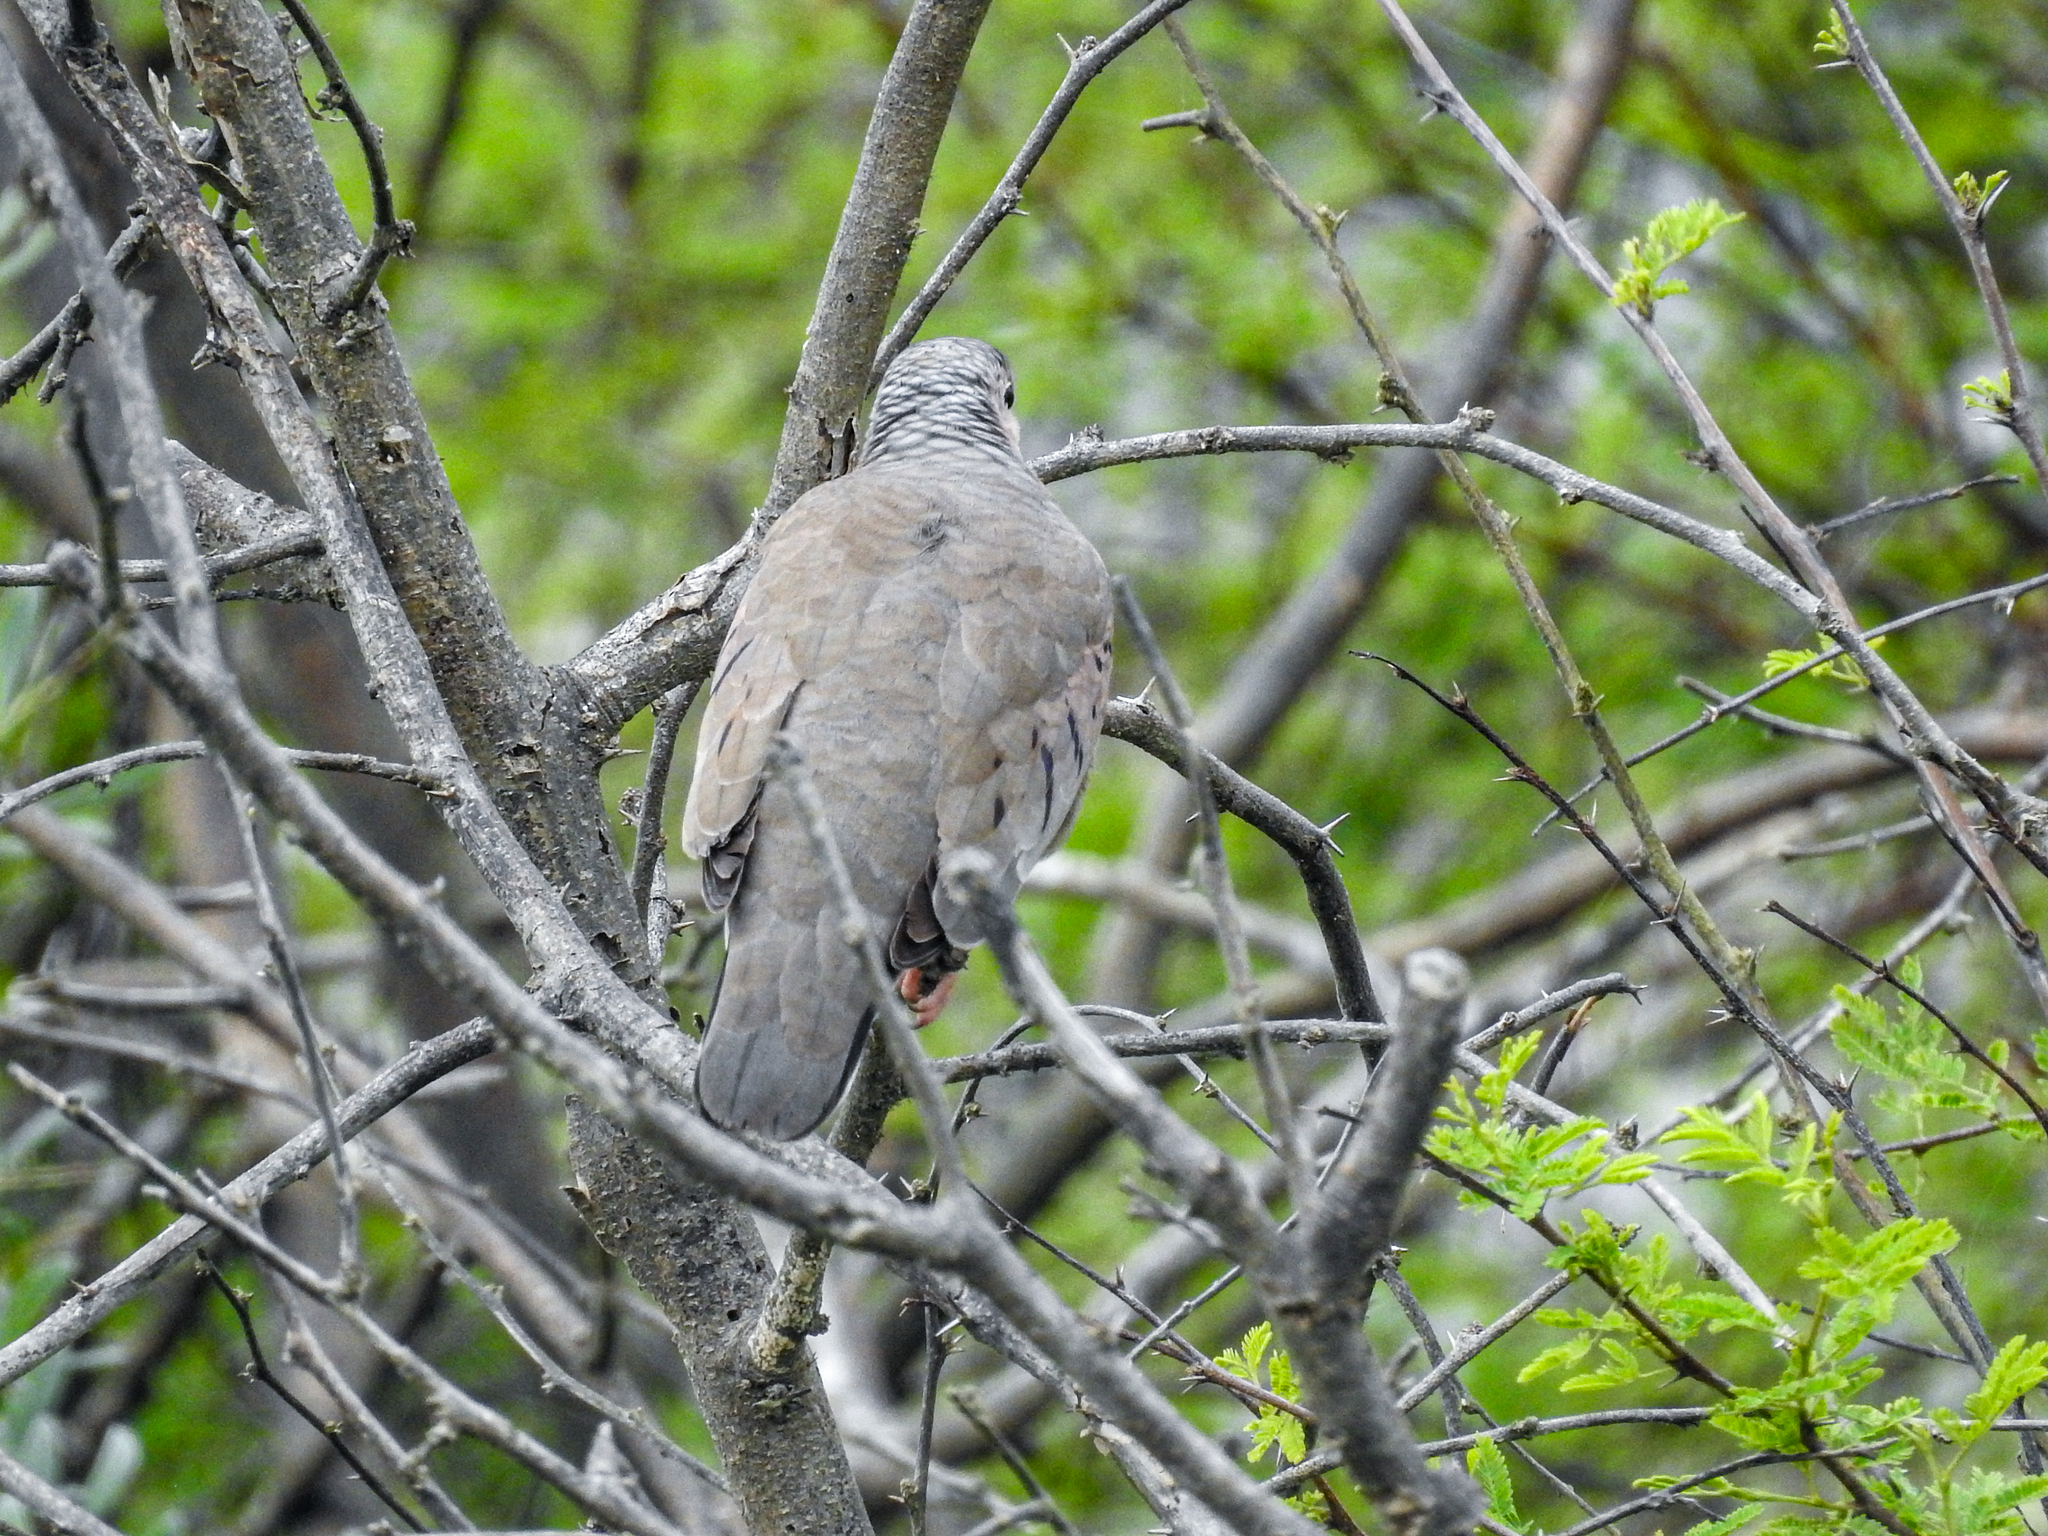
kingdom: Animalia
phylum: Chordata
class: Aves
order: Columbiformes
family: Columbidae
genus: Columbina
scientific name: Columbina passerina
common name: Common ground-dove
